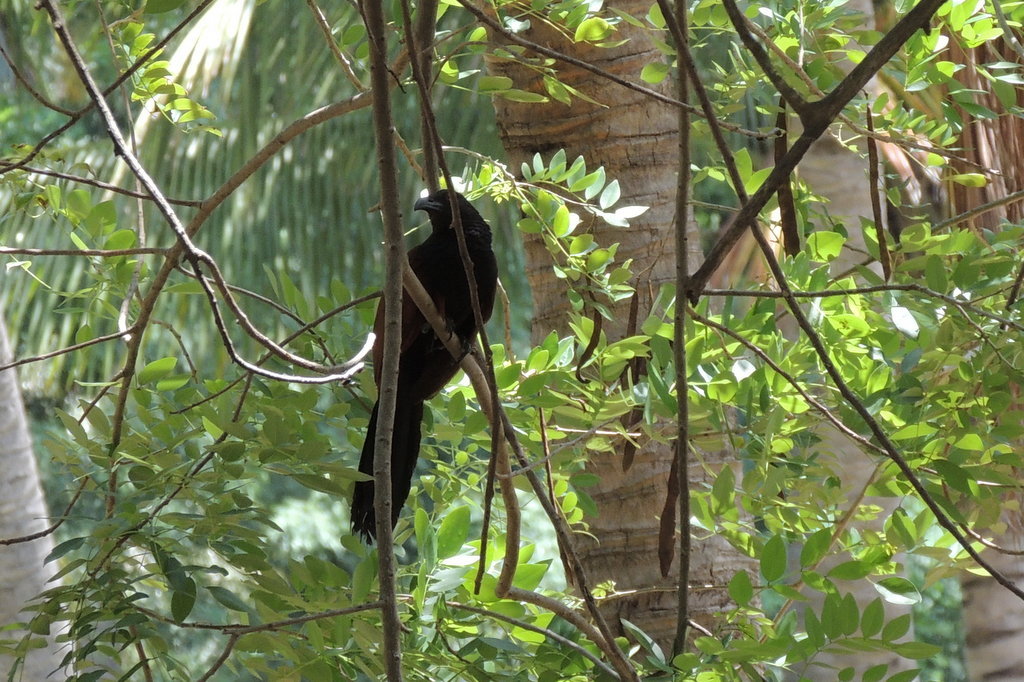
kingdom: Animalia
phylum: Chordata
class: Aves
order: Cuculiformes
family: Cuculidae
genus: Centropus
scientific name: Centropus sinensis
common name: Greater coucal
